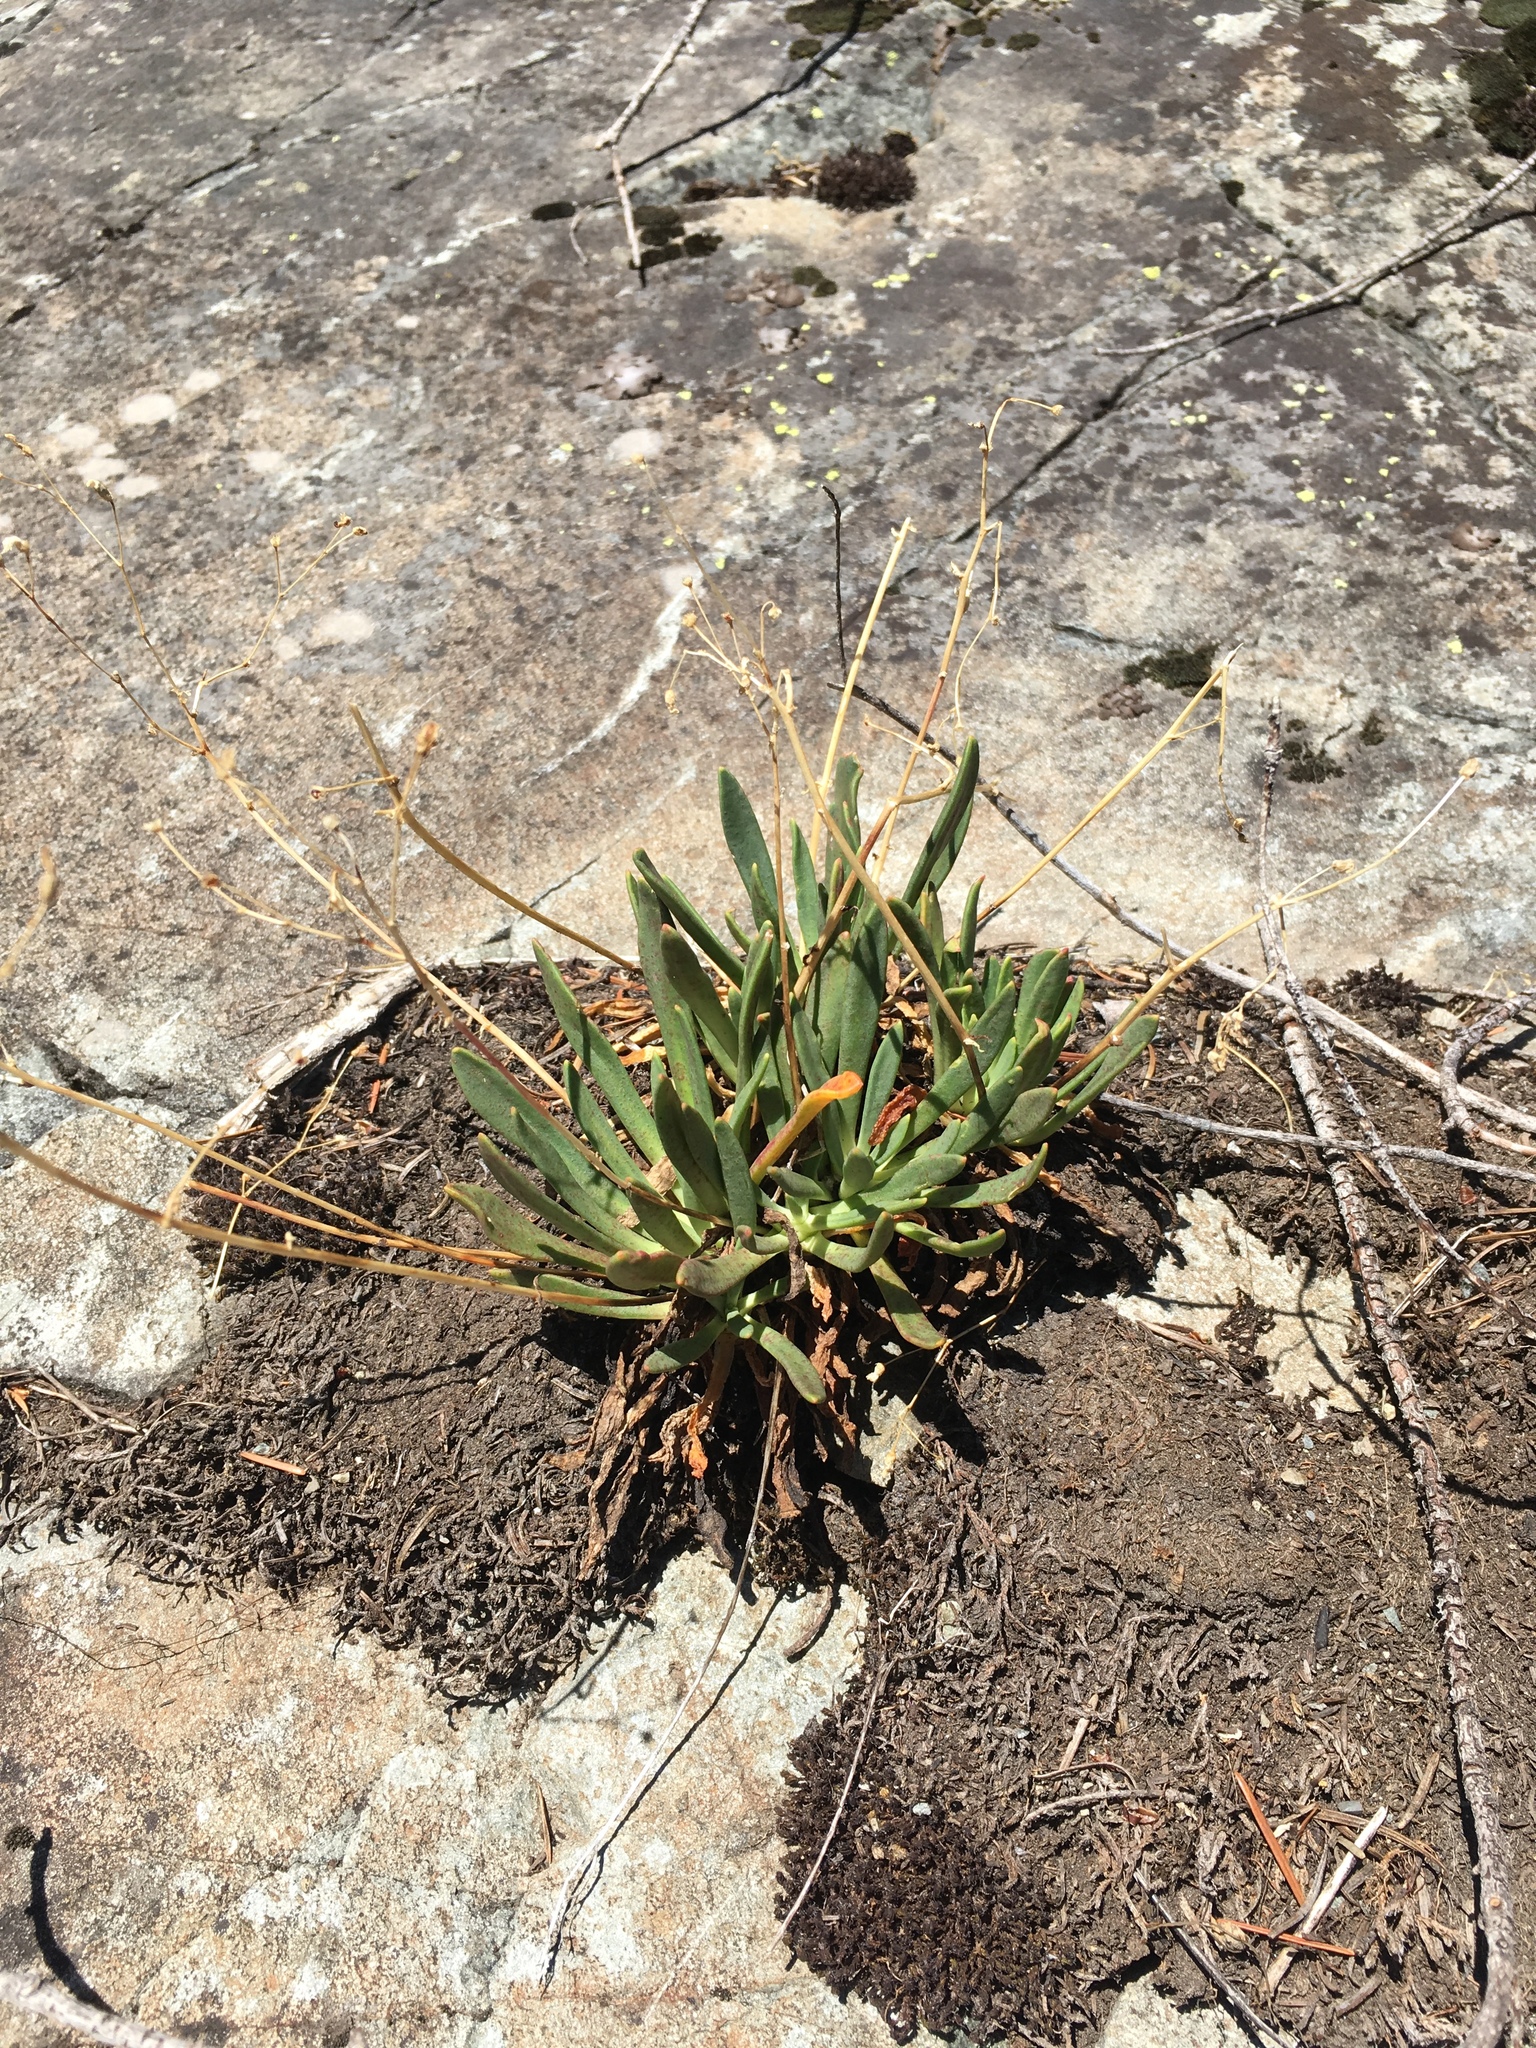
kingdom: Plantae
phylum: Tracheophyta
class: Magnoliopsida
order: Caryophyllales
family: Montiaceae
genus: Lewisia
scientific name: Lewisia columbiana
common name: Columbia lewisia
